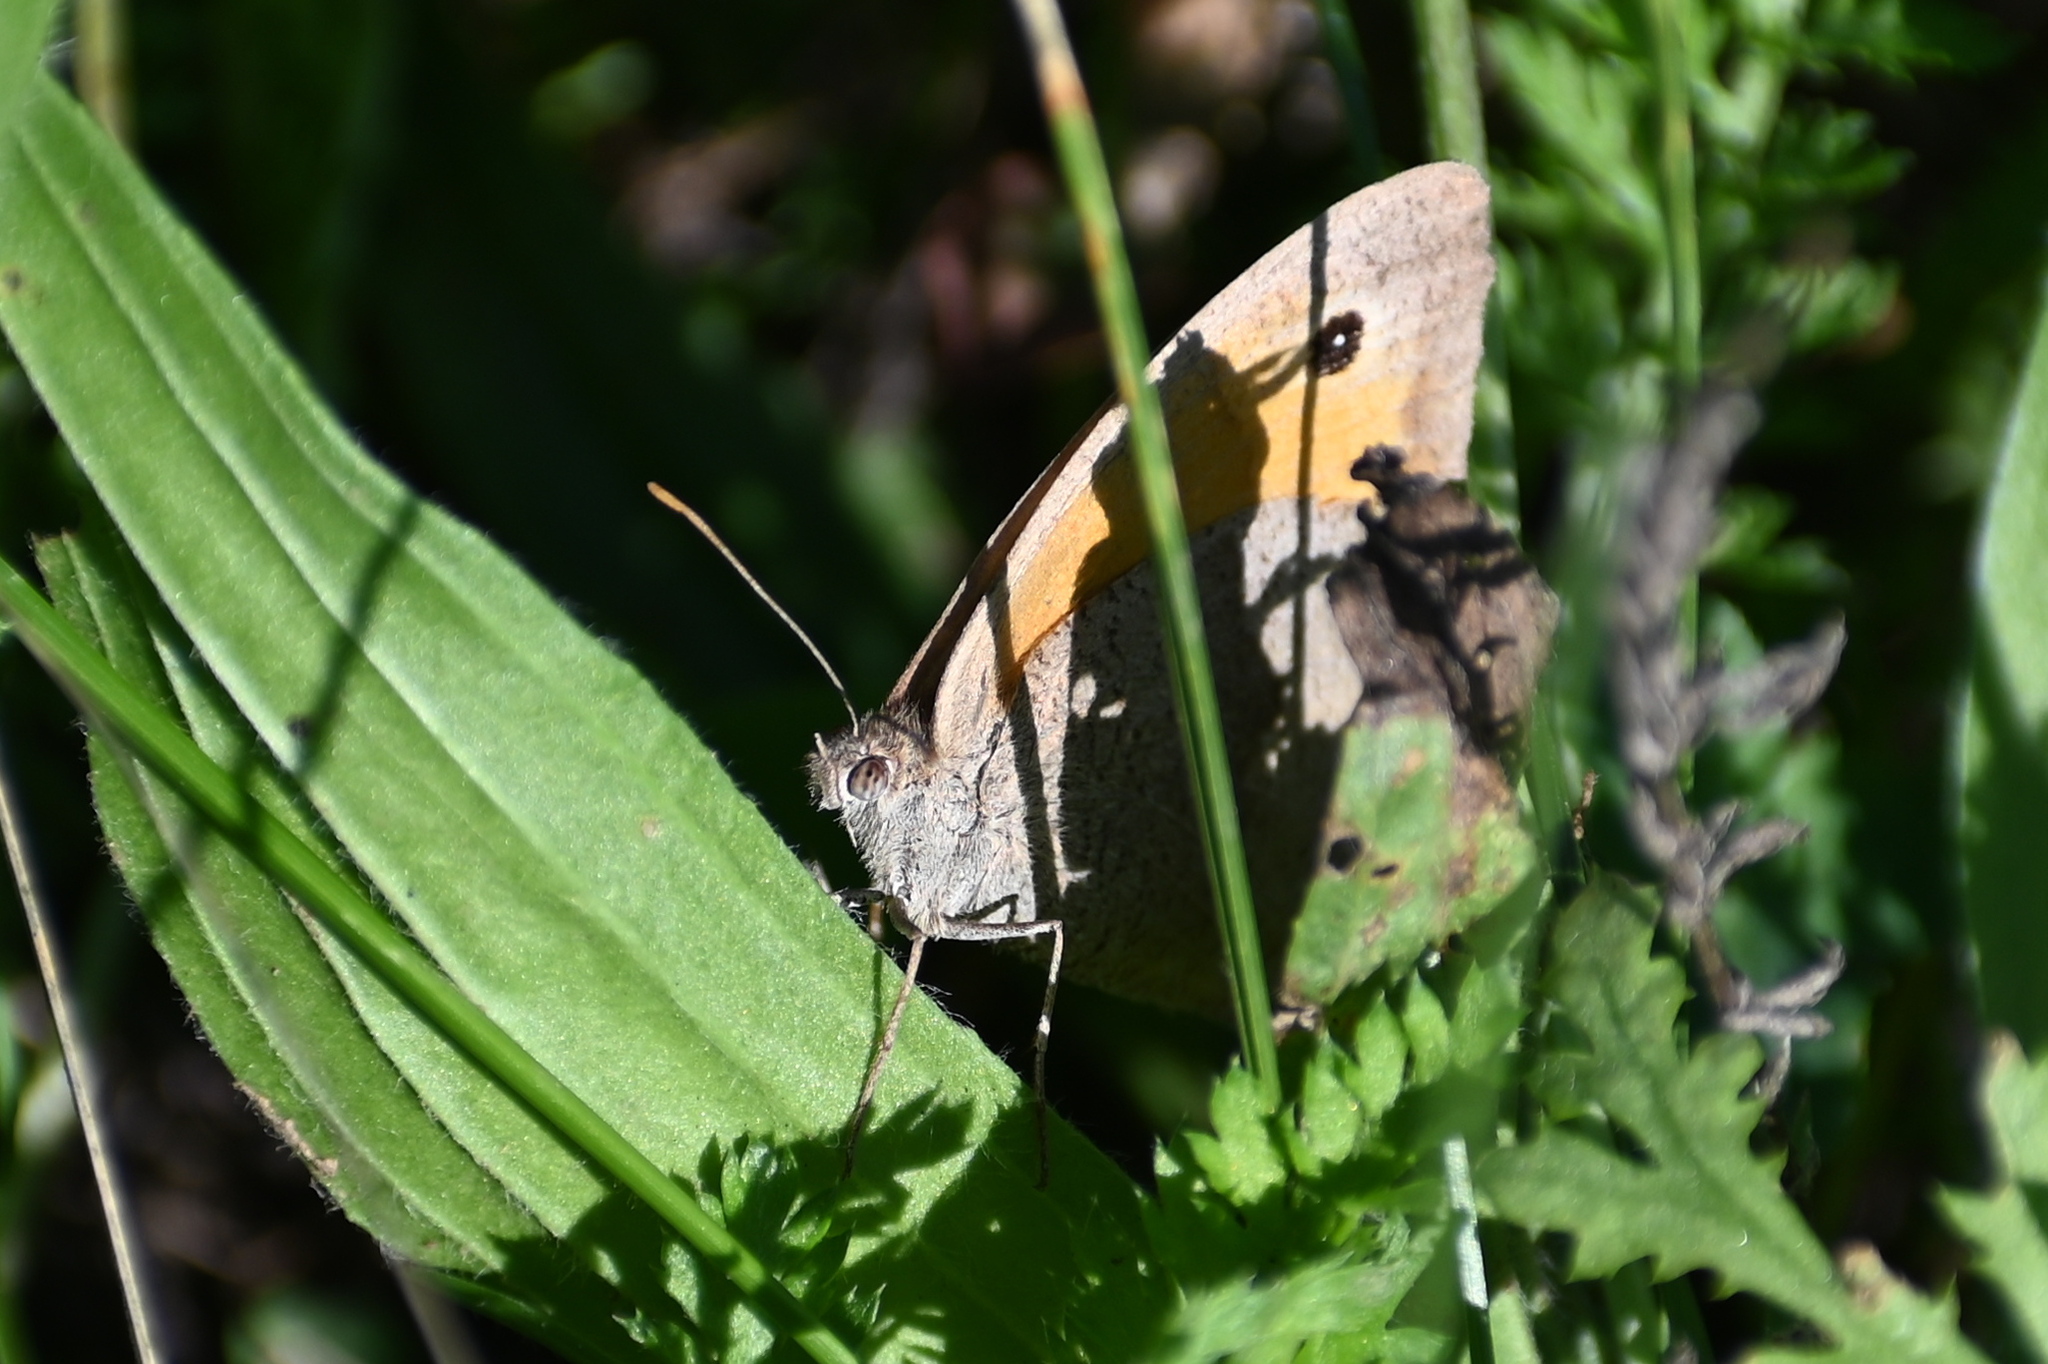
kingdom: Animalia
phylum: Arthropoda
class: Insecta
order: Lepidoptera
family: Nymphalidae
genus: Maniola
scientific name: Maniola jurtina
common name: Meadow brown
